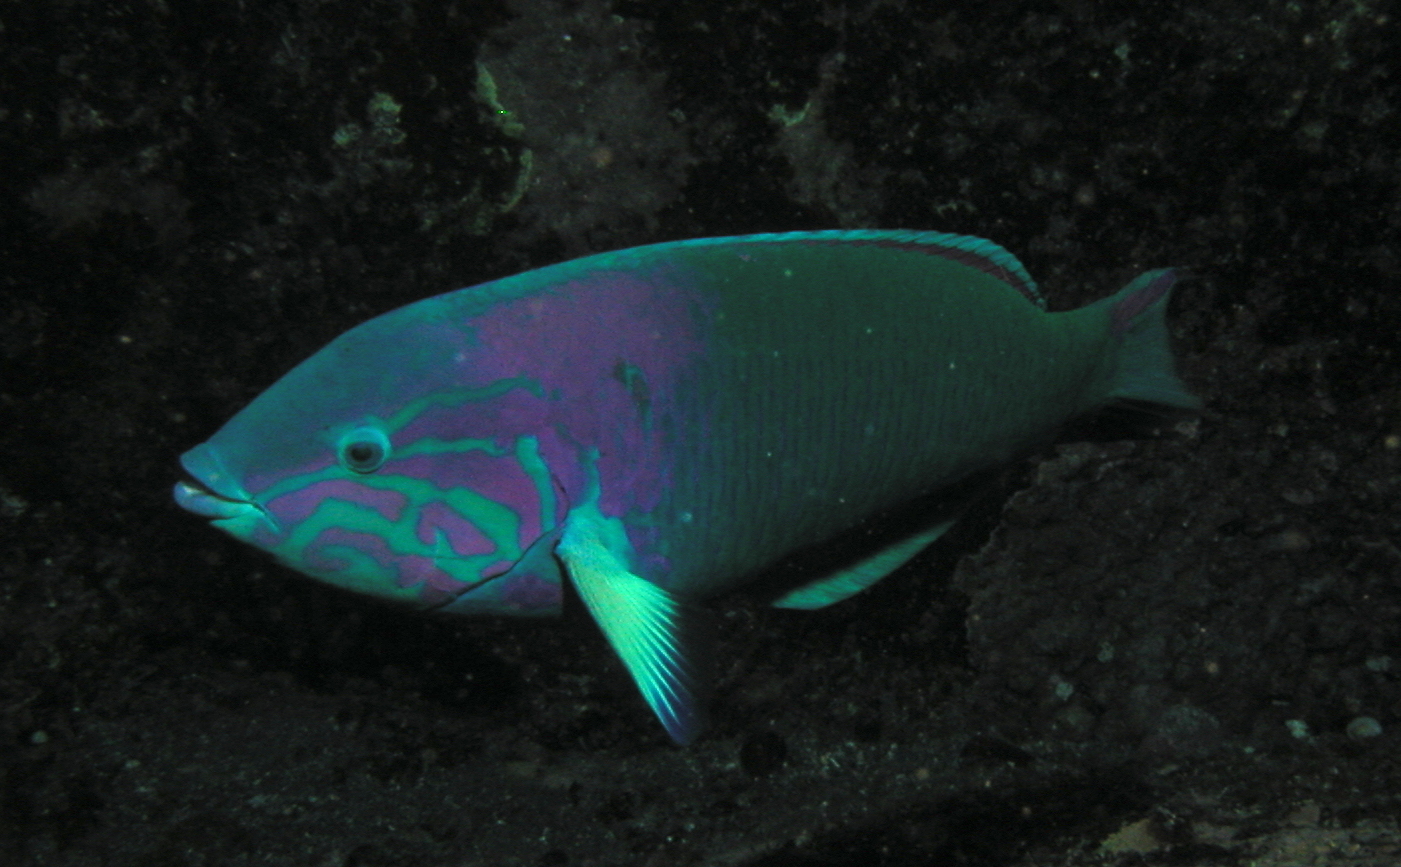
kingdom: Animalia
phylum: Chordata
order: Perciformes
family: Labridae
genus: Thalassoma
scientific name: Thalassoma grammaticum
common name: Sunset wrasse
